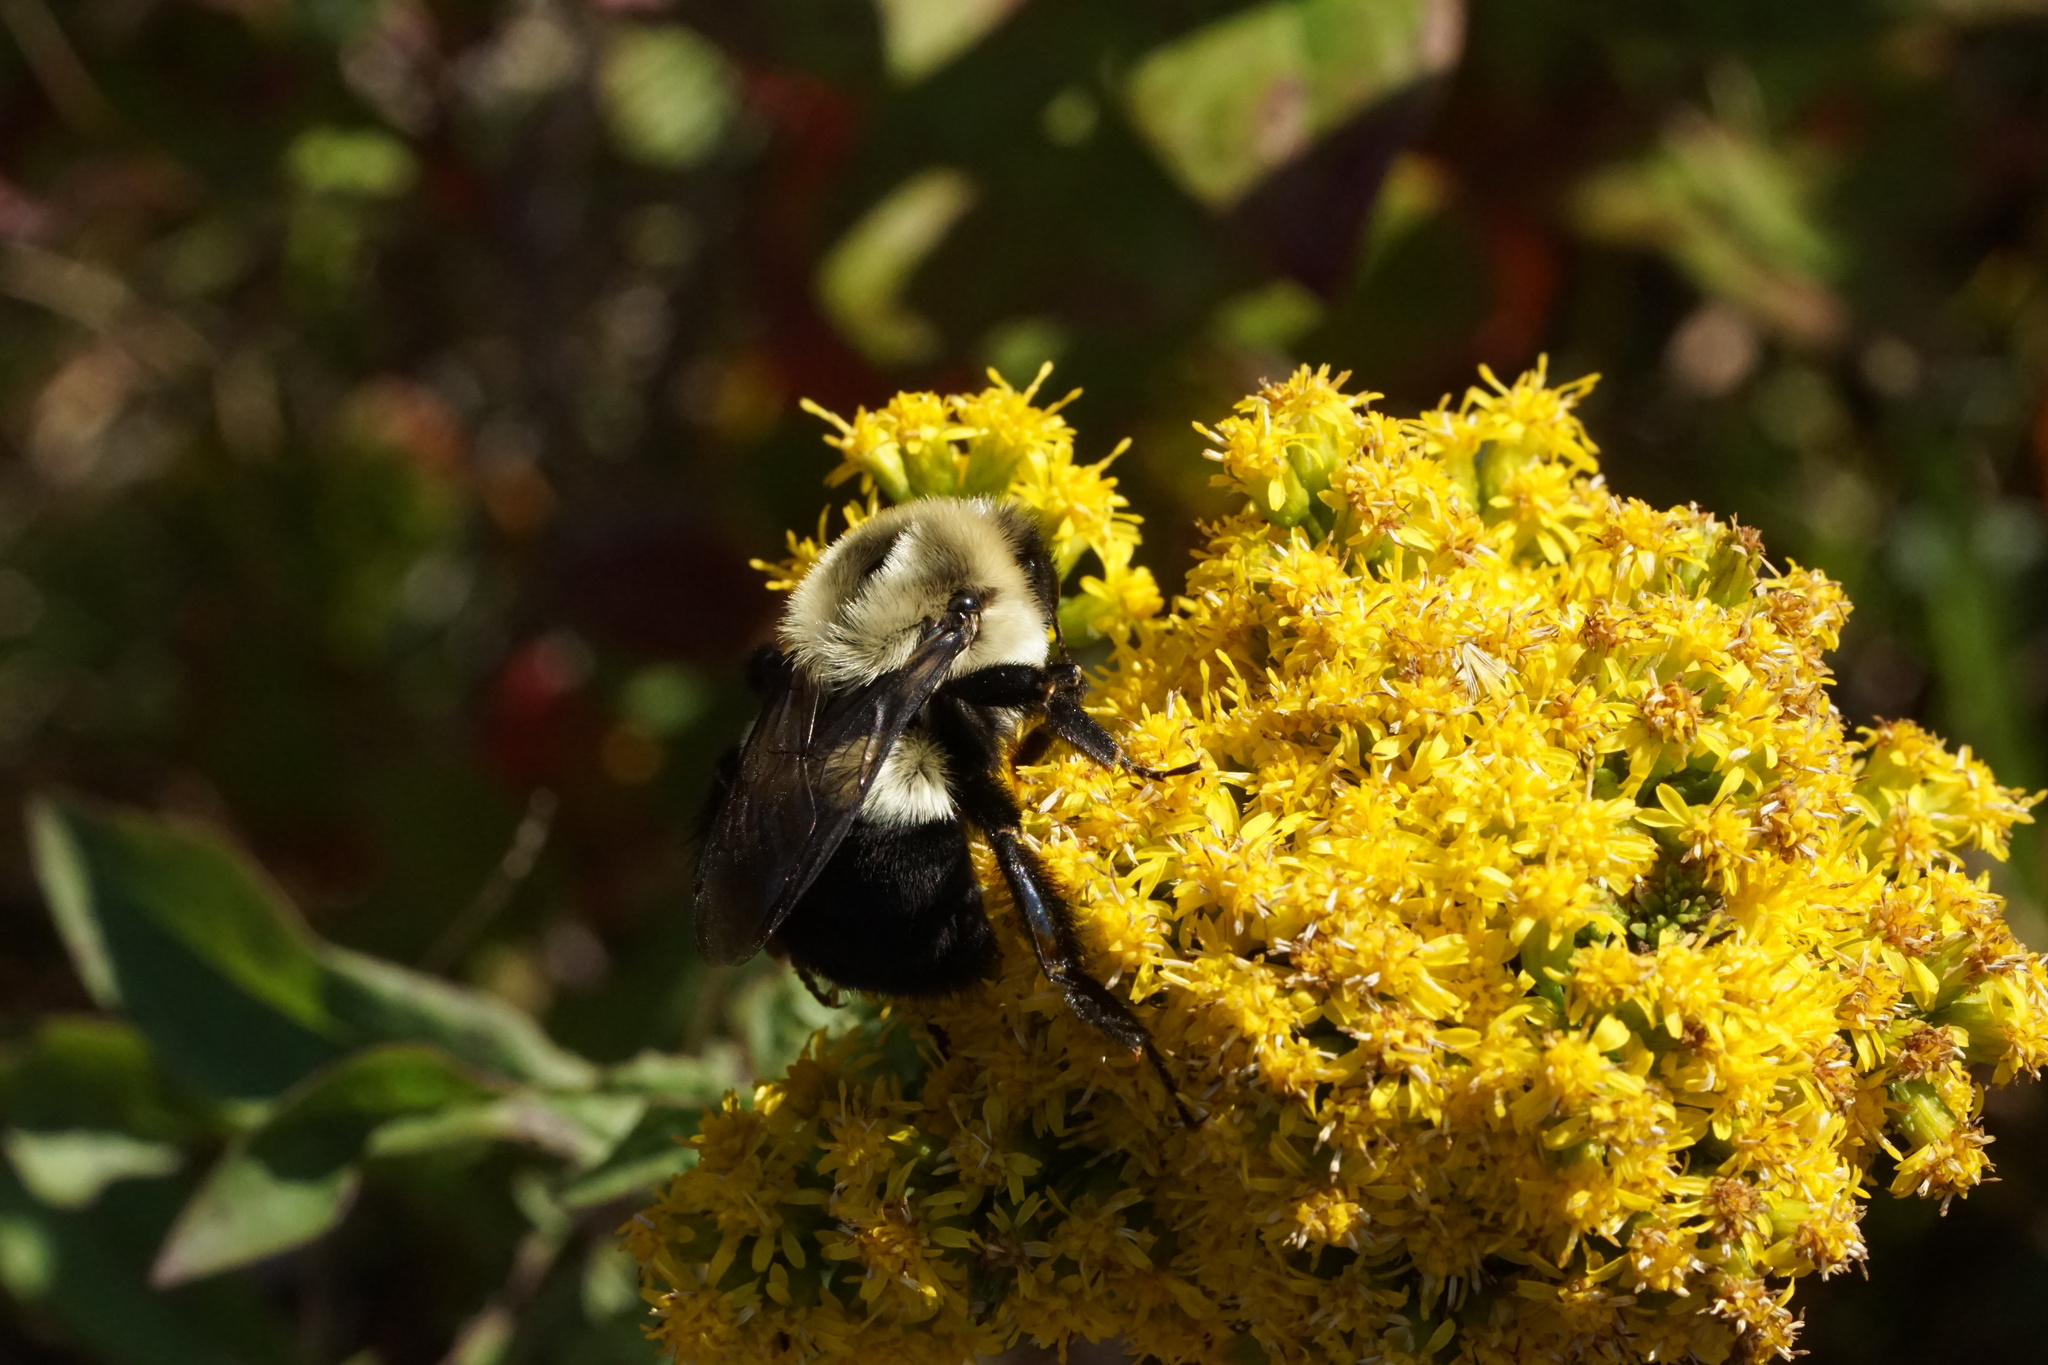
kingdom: Animalia
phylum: Arthropoda
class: Insecta
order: Hymenoptera
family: Apidae
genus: Bombus
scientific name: Bombus impatiens
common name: Common eastern bumble bee
